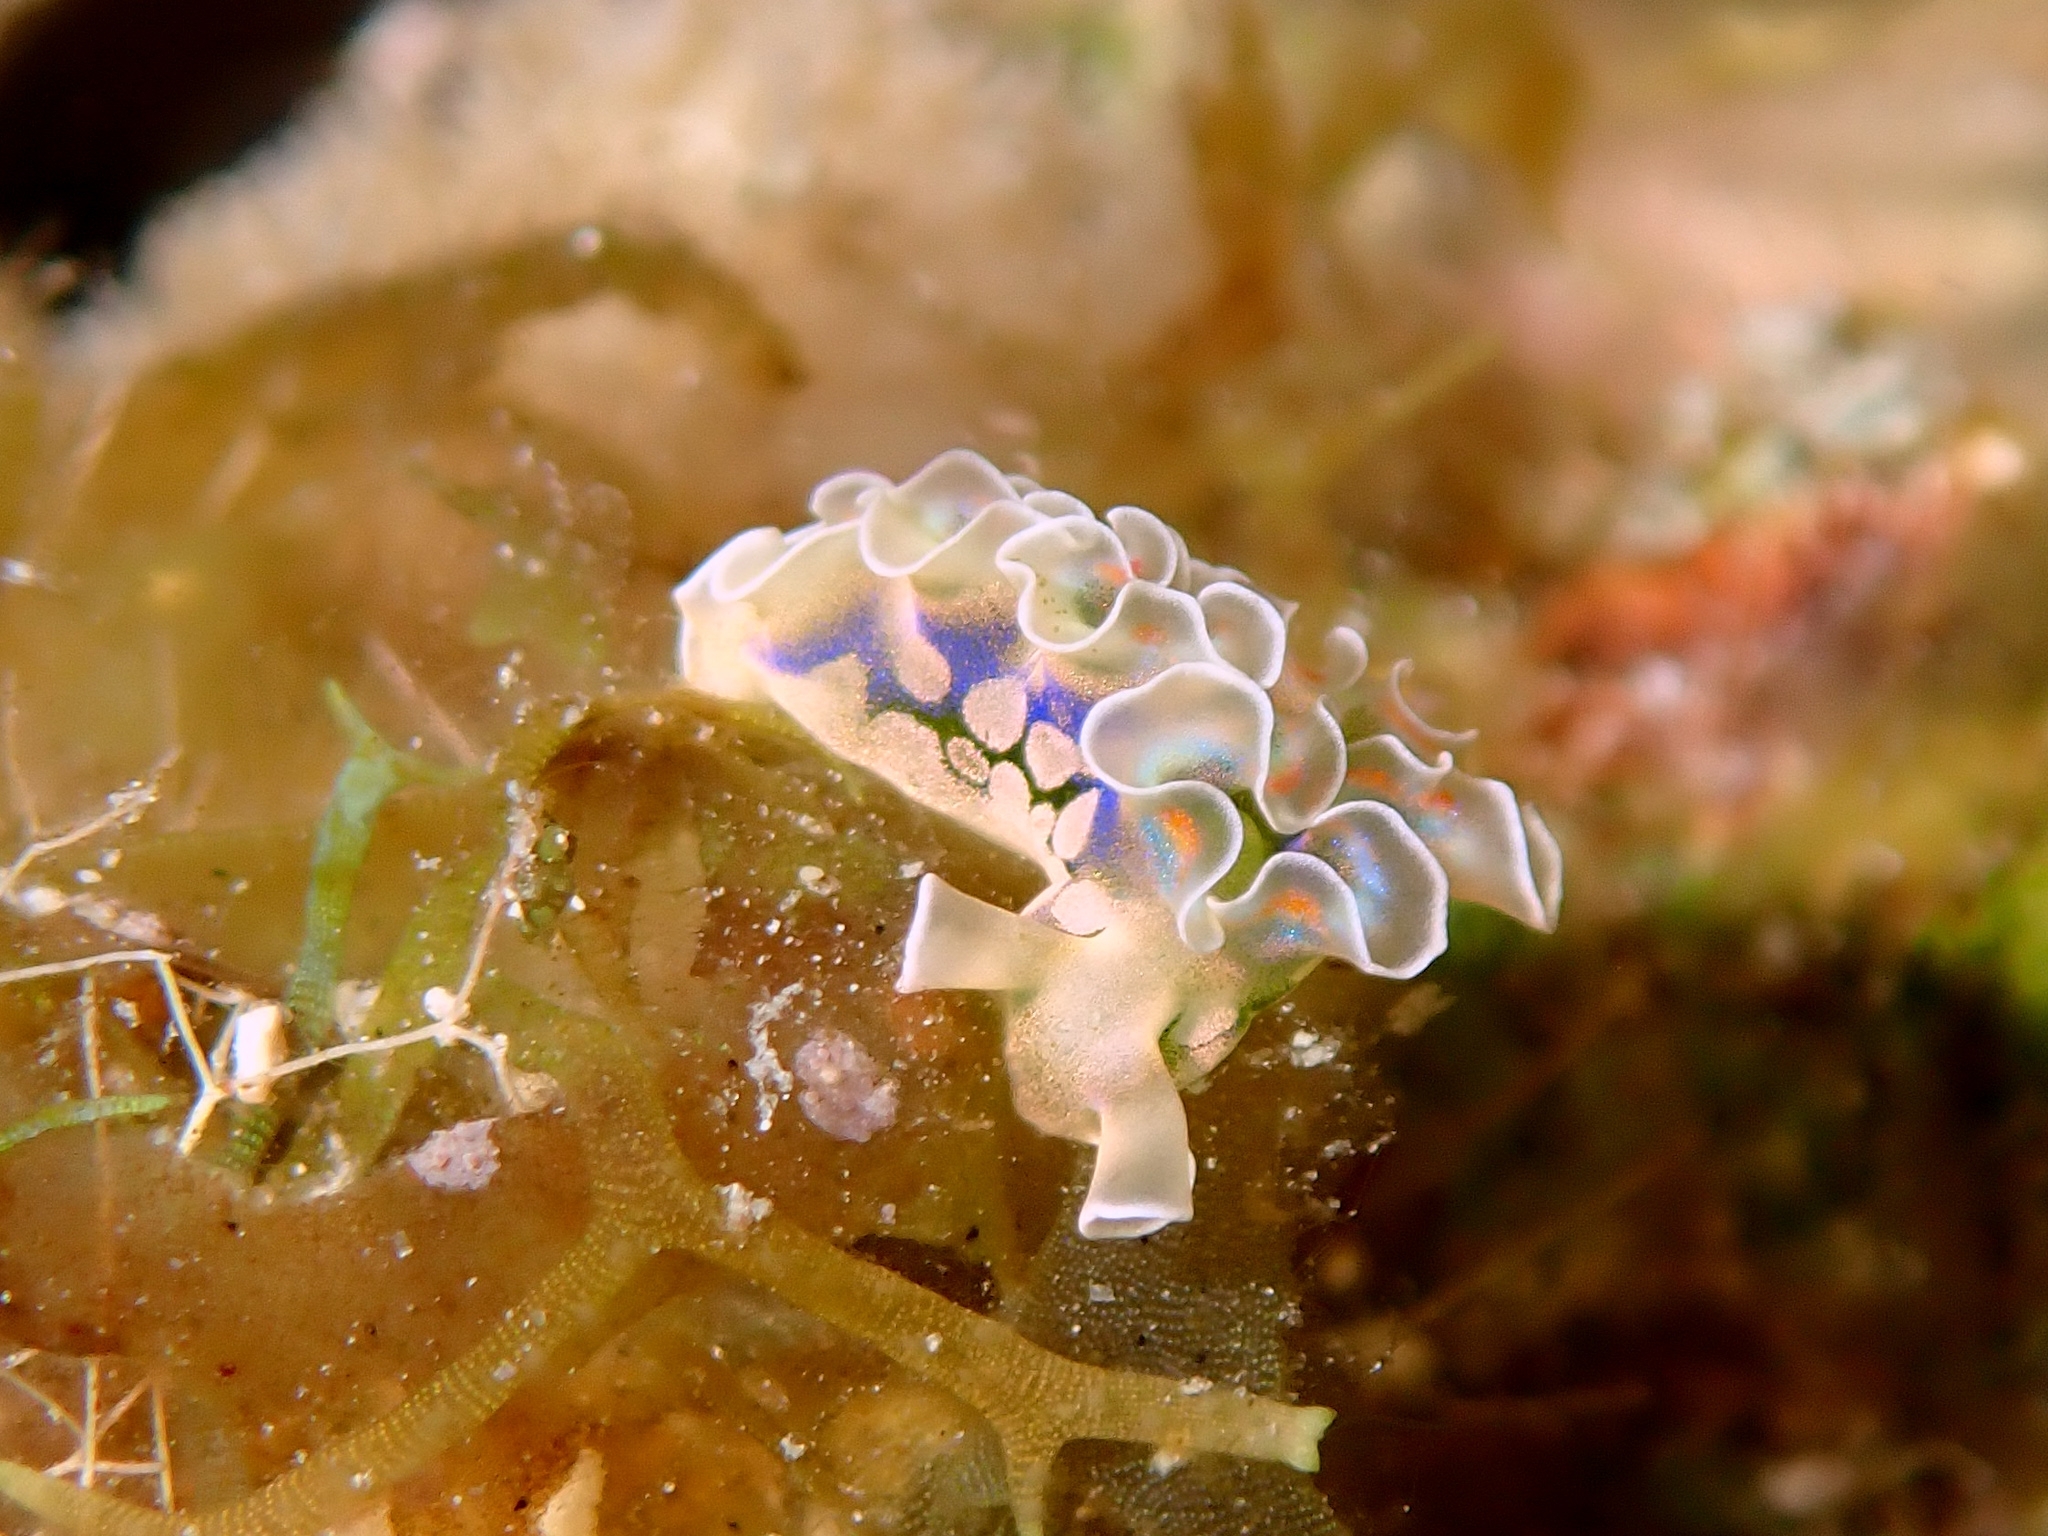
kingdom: Animalia
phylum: Mollusca
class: Gastropoda
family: Plakobranchidae
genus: Elysia
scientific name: Elysia crispata
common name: Lettuce slug
